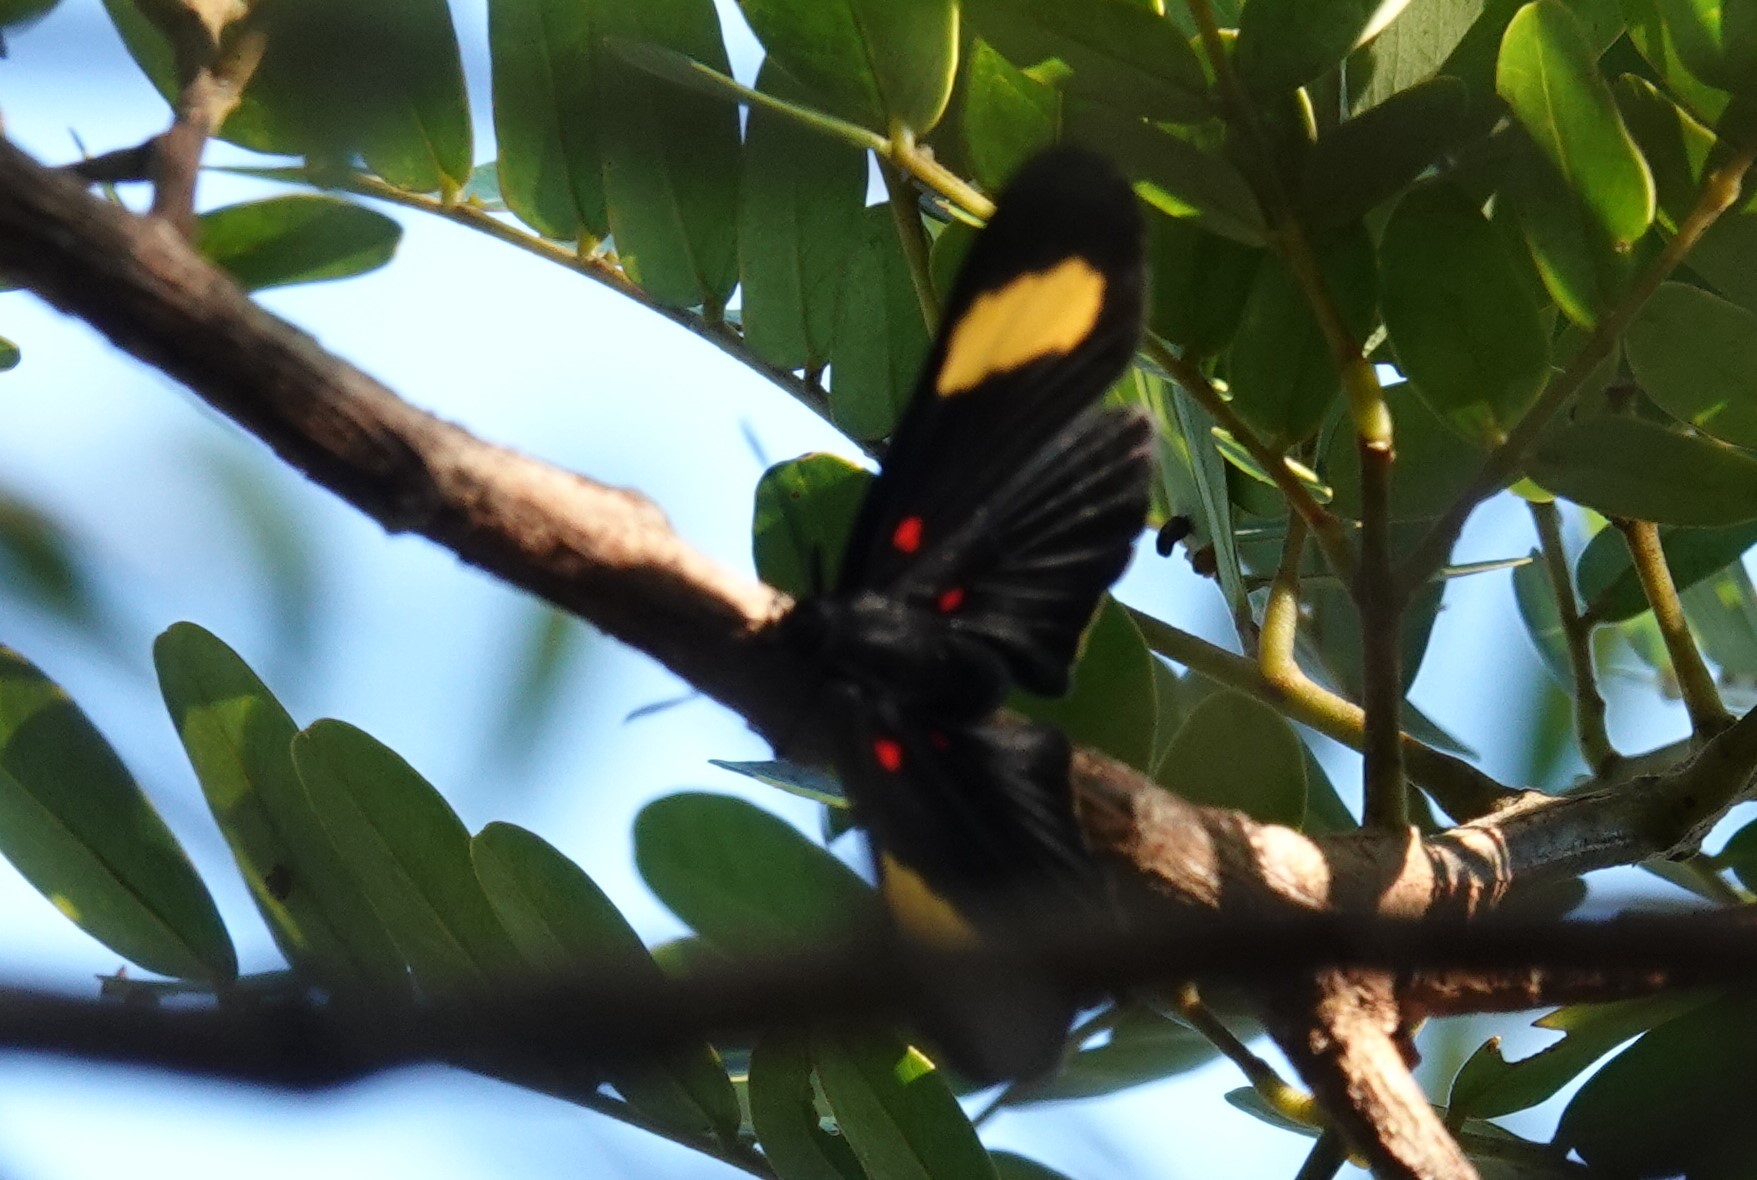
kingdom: Animalia
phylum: Arthropoda
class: Insecta
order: Lepidoptera
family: Lycaenidae
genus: Melanis
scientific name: Melanis electron
